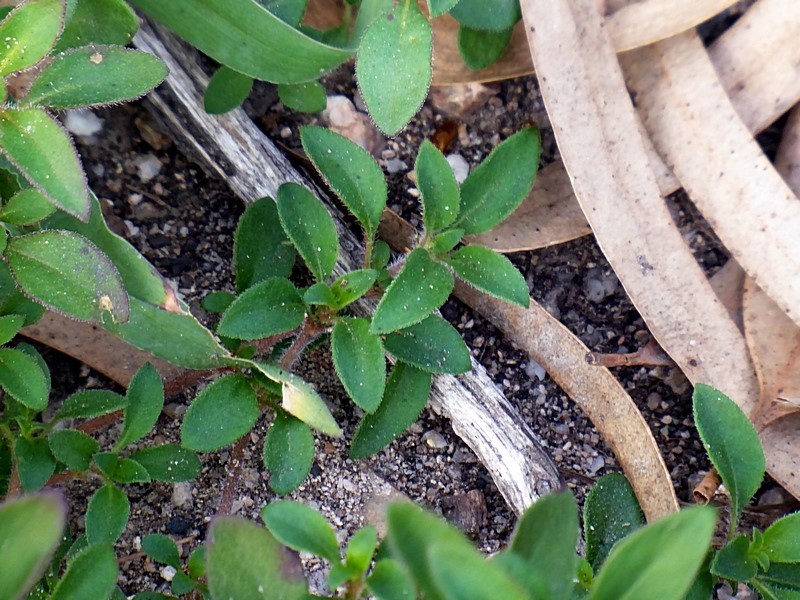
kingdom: Plantae
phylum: Tracheophyta
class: Magnoliopsida
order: Gentianales
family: Rubiaceae
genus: Pomax
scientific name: Pomax umbellata
